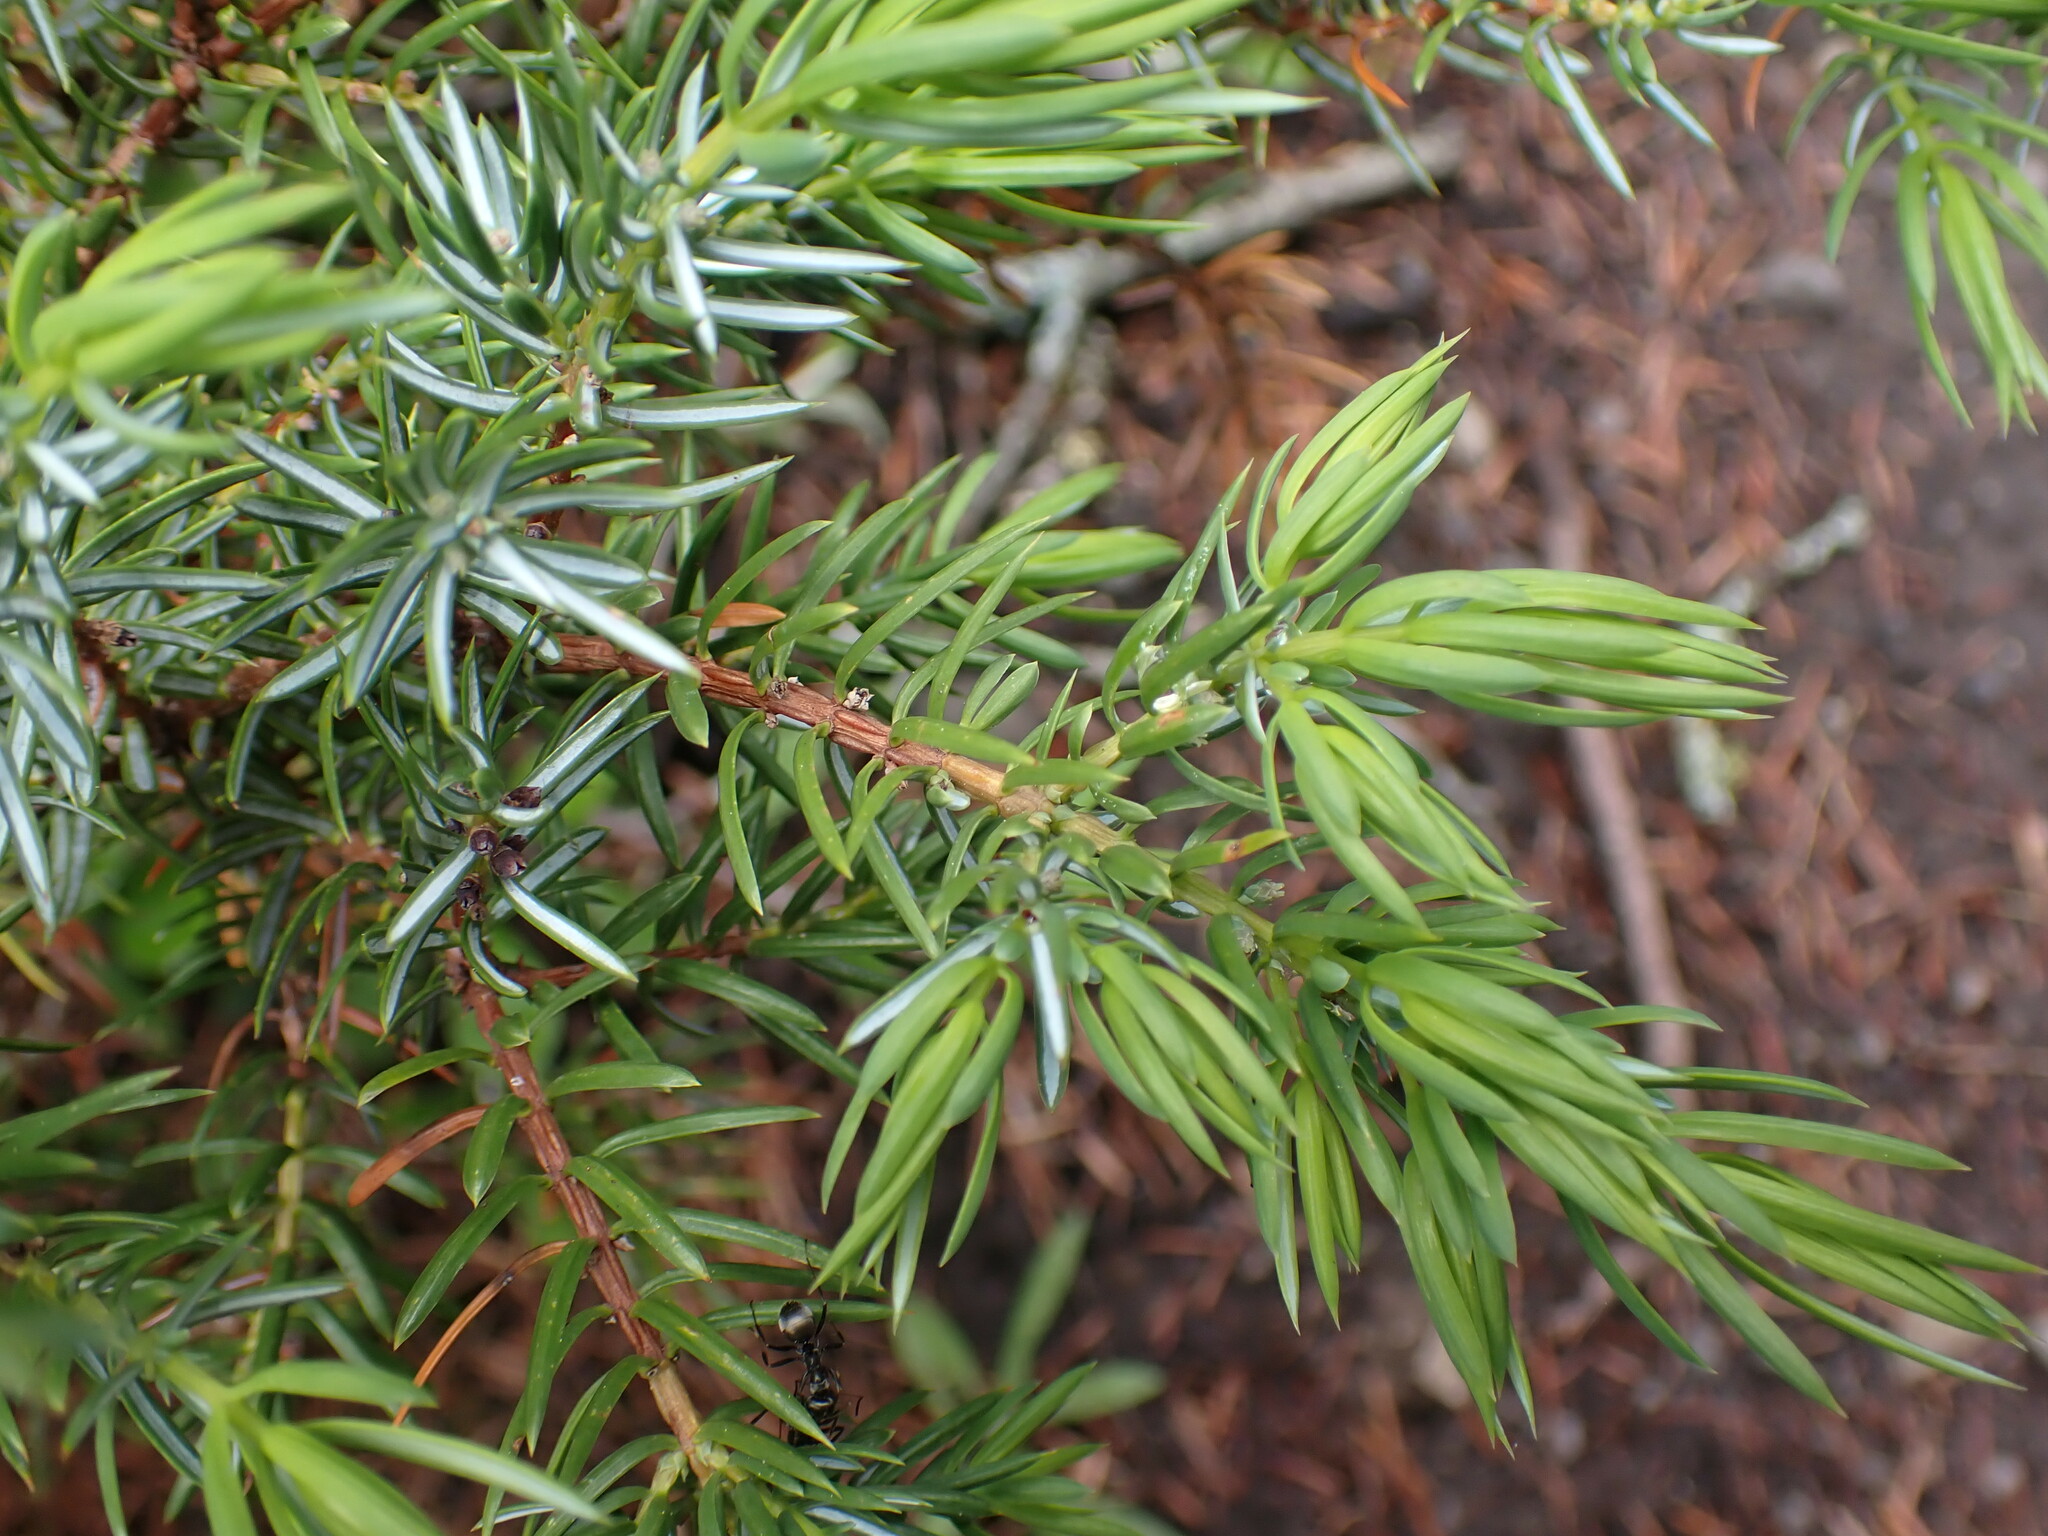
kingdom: Plantae
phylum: Tracheophyta
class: Pinopsida
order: Pinales
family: Cupressaceae
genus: Juniperus
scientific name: Juniperus communis
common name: Common juniper
